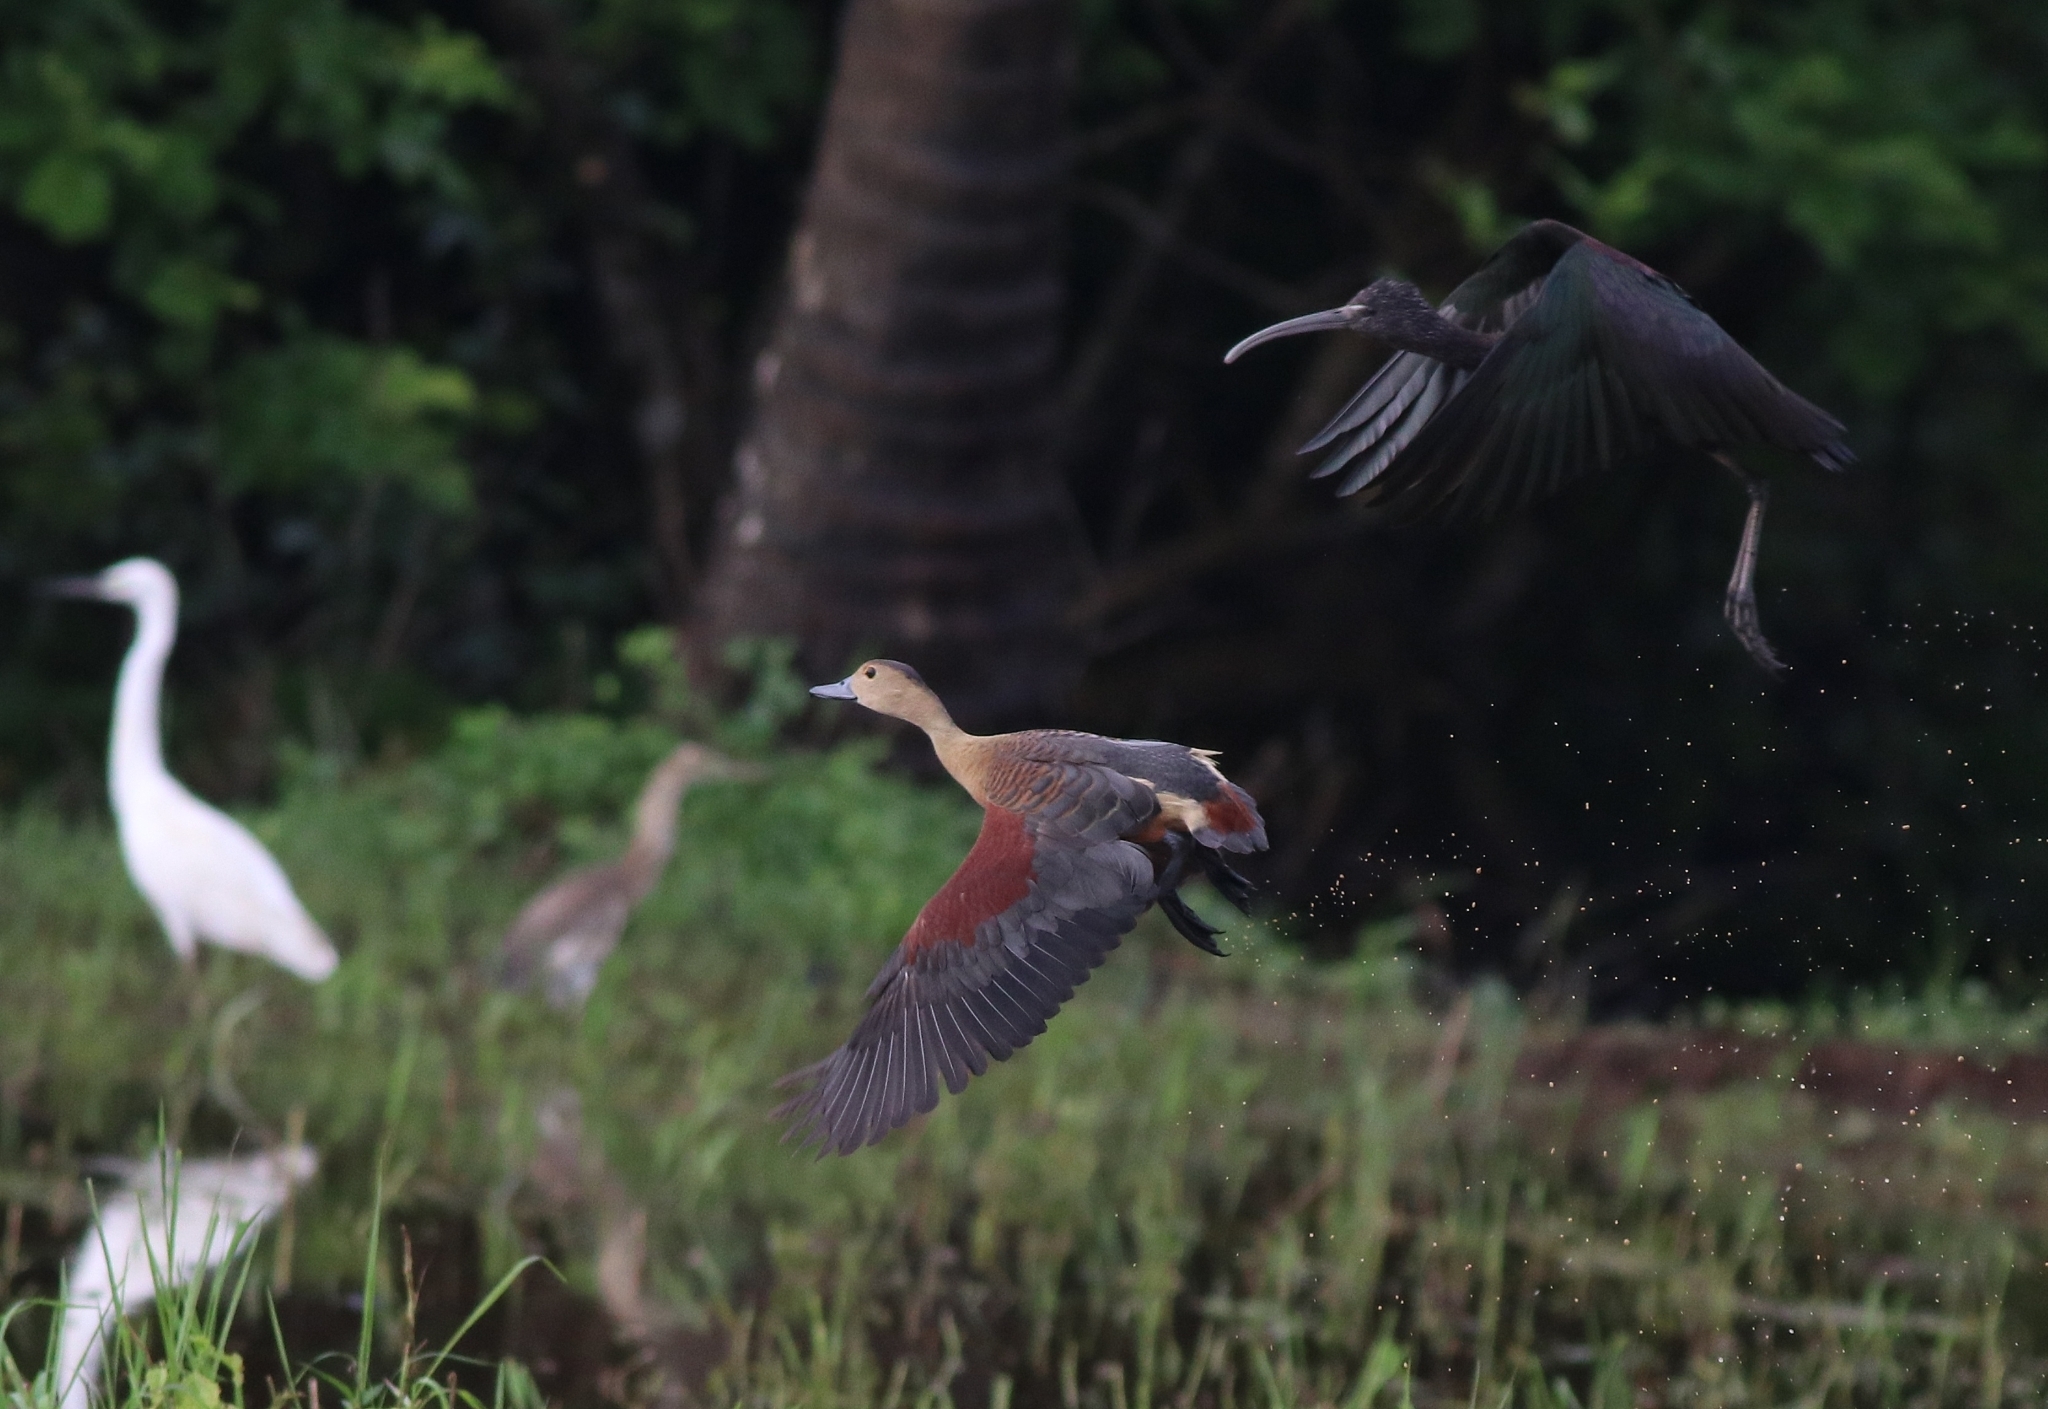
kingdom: Animalia
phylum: Chordata
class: Aves
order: Pelecaniformes
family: Threskiornithidae
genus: Plegadis
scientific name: Plegadis falcinellus
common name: Glossy ibis
